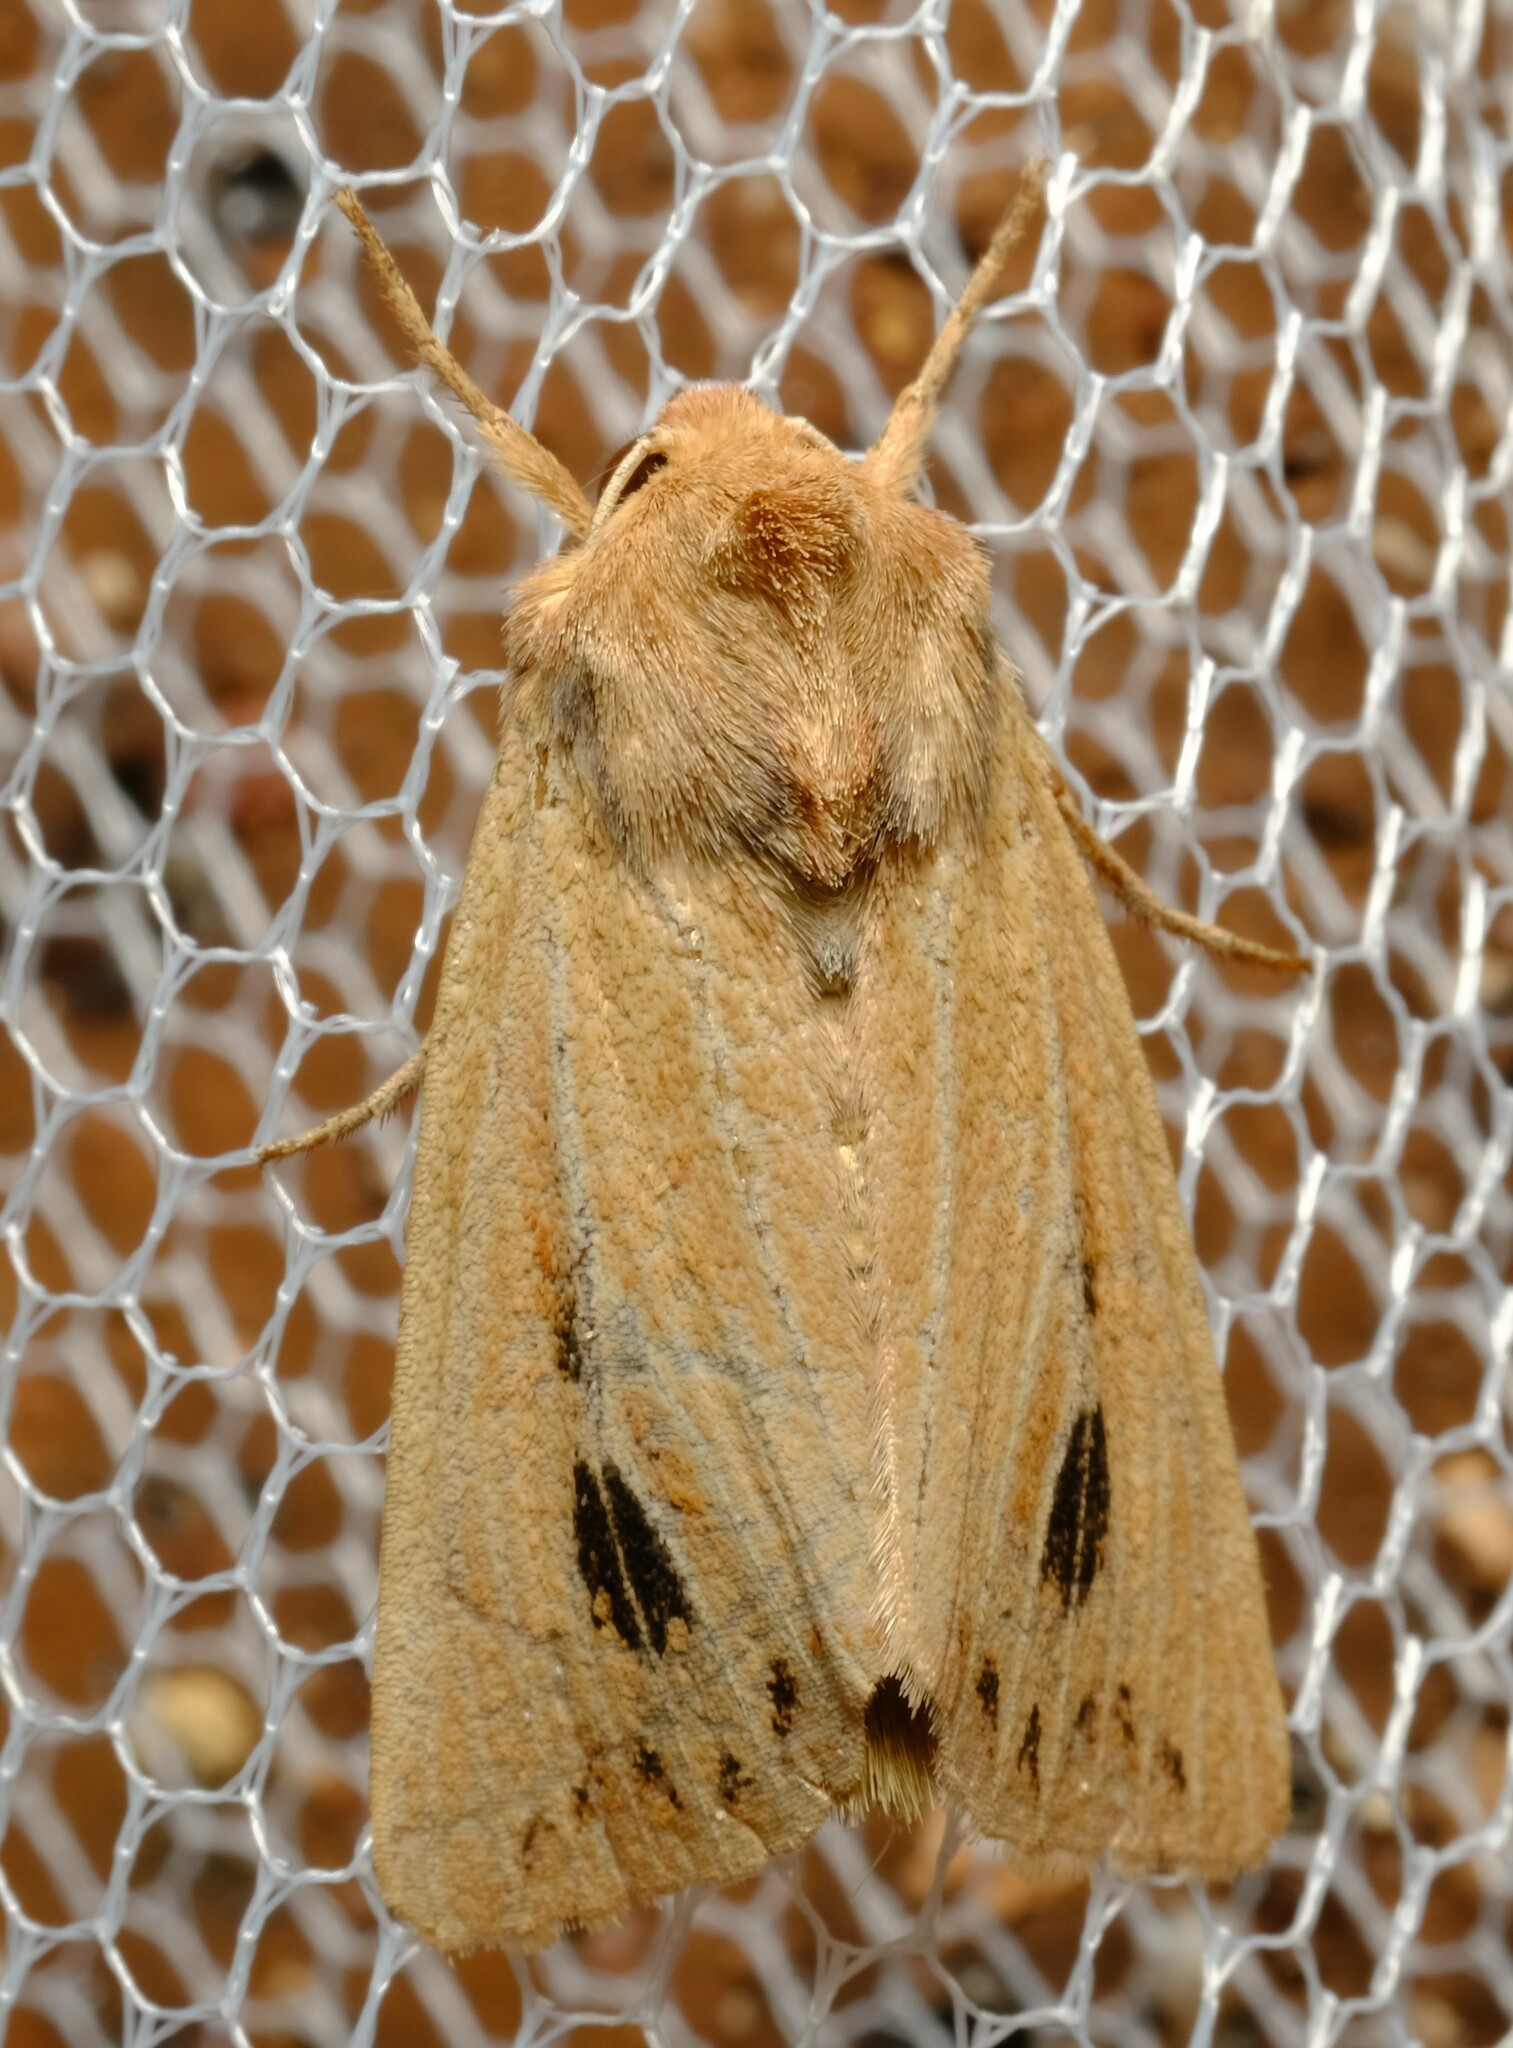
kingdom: Animalia
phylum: Arthropoda
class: Insecta
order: Lepidoptera
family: Noctuidae
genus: Leucania
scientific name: Leucania obusta
